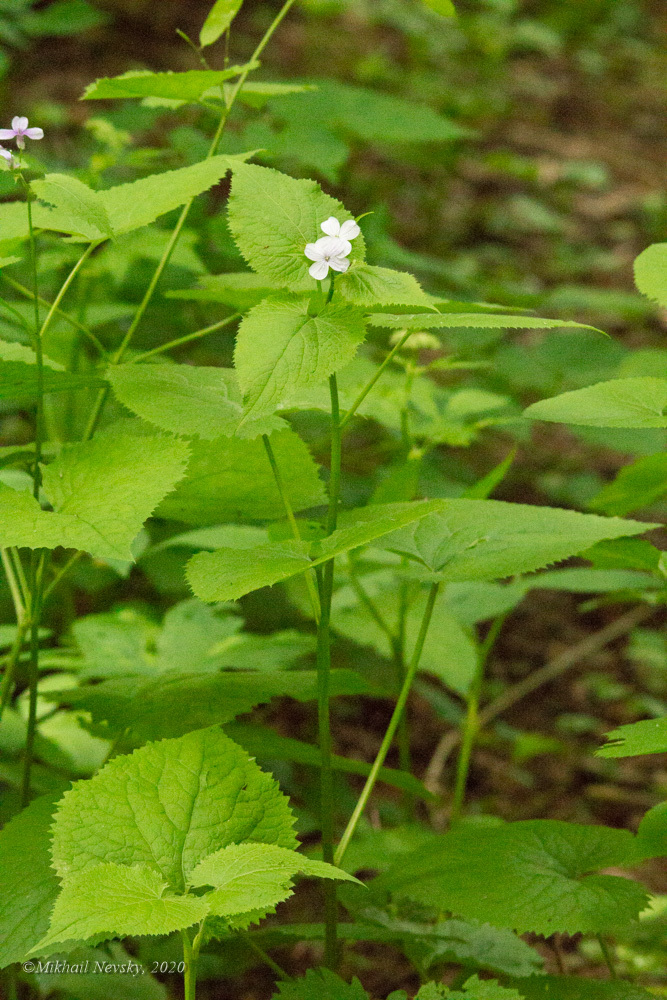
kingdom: Plantae
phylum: Tracheophyta
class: Magnoliopsida
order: Brassicales
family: Brassicaceae
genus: Lunaria
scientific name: Lunaria rediviva
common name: Perennial honesty
